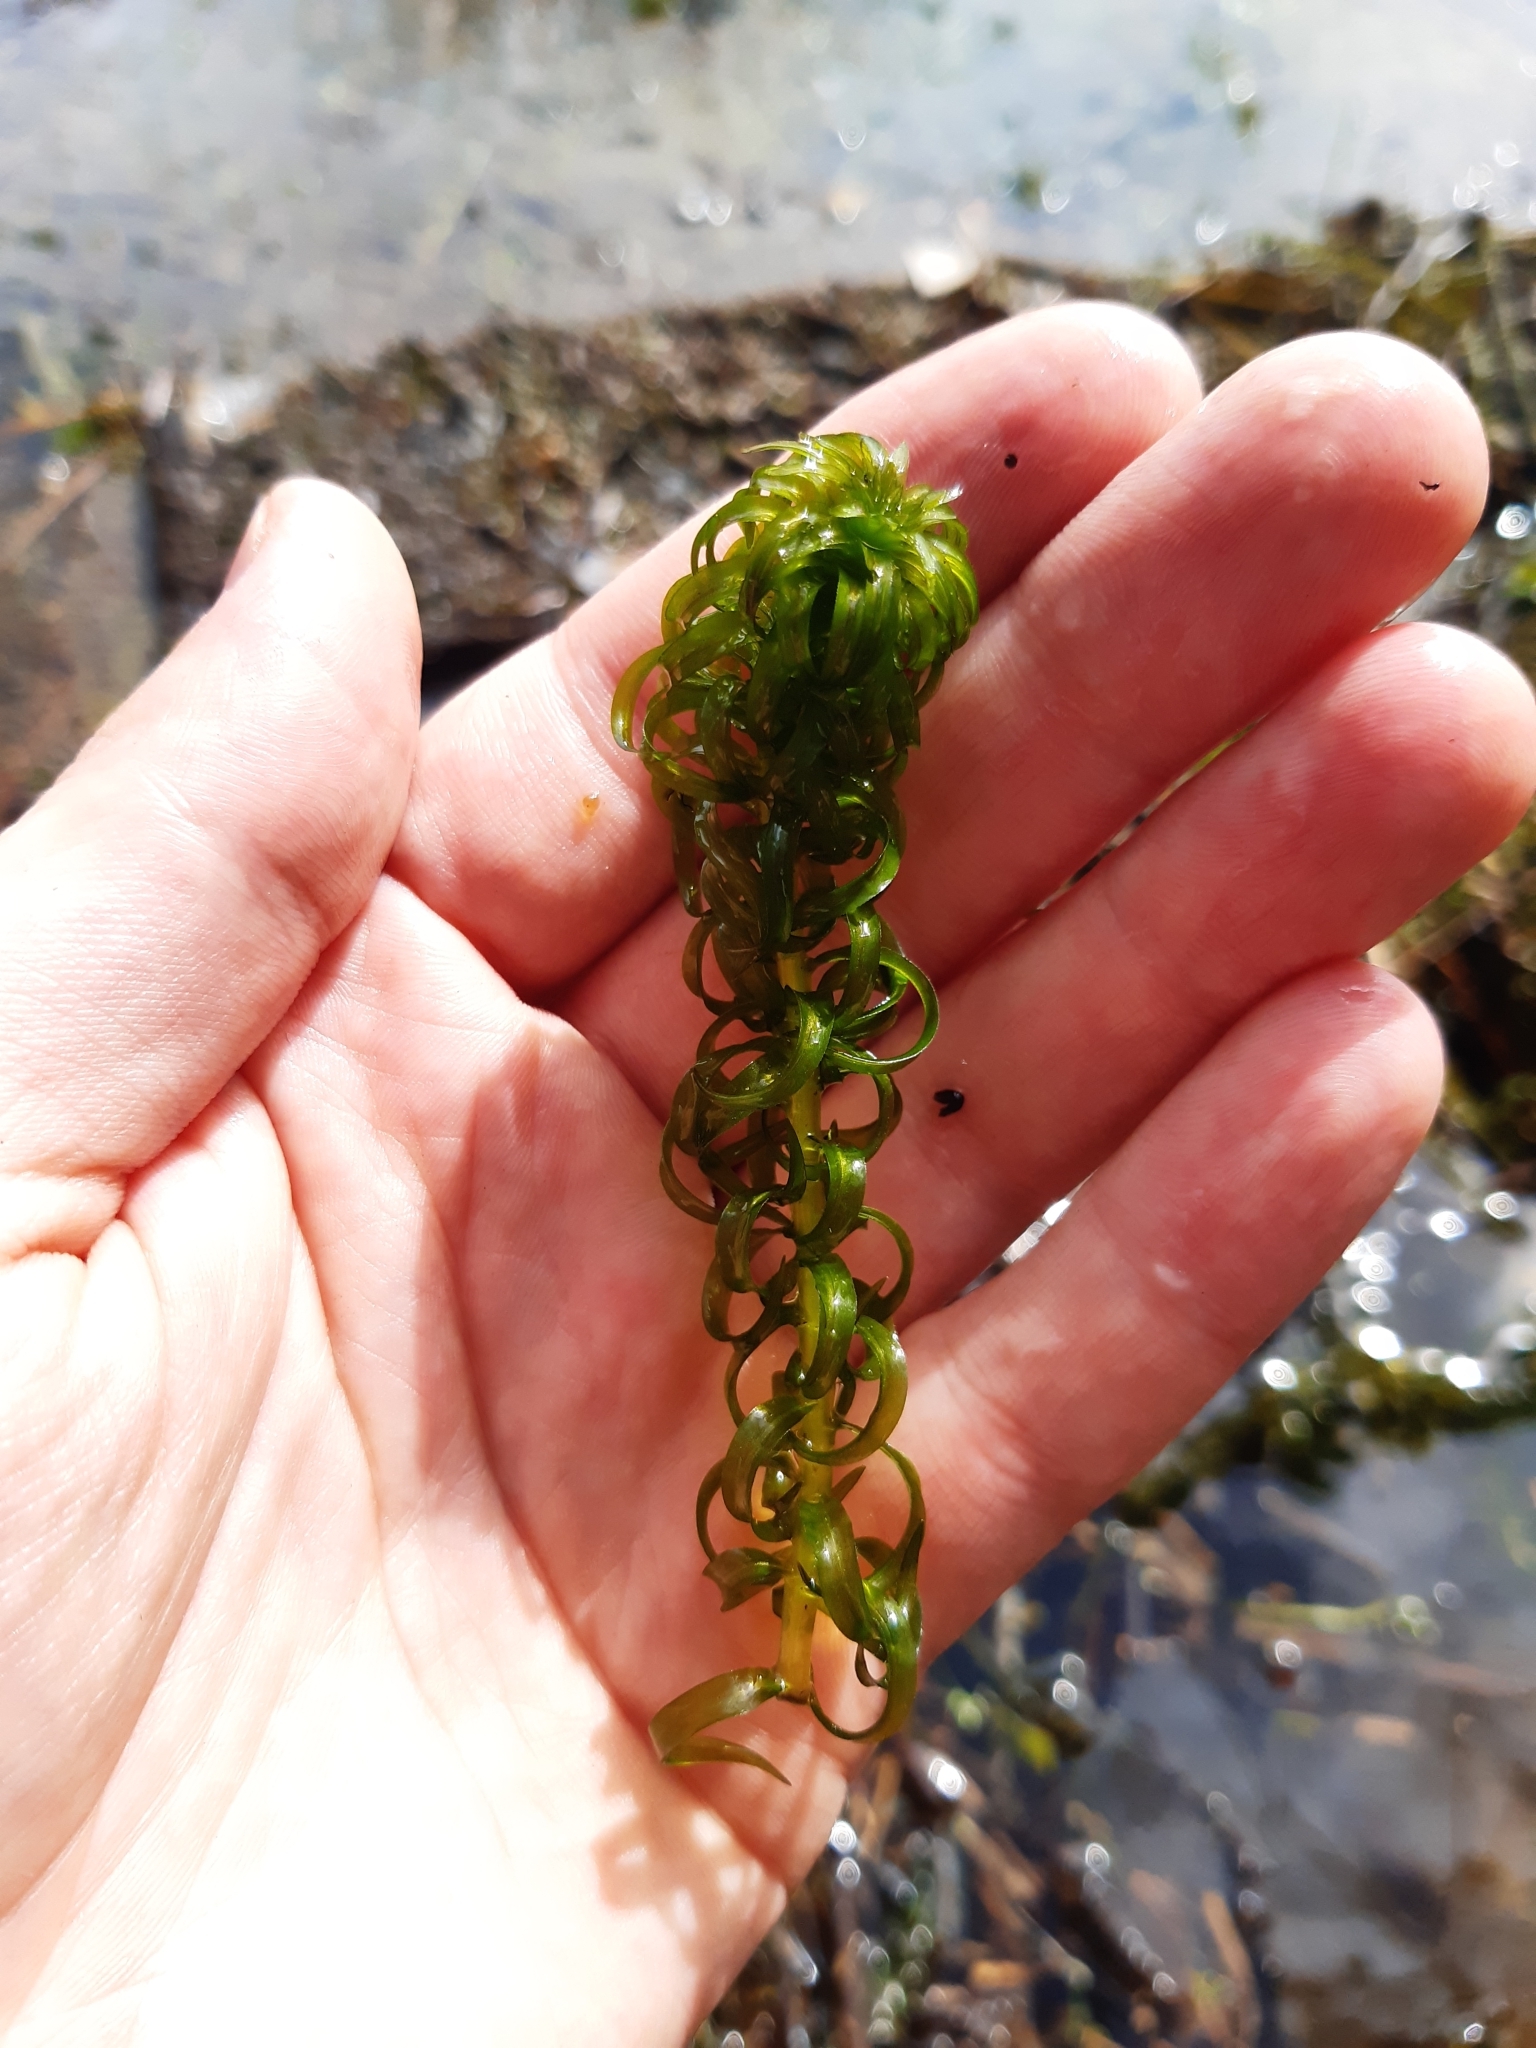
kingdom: Plantae
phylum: Tracheophyta
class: Liliopsida
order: Alismatales
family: Hydrocharitaceae
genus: Lagarosiphon
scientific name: Lagarosiphon major
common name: Curly waterweed
